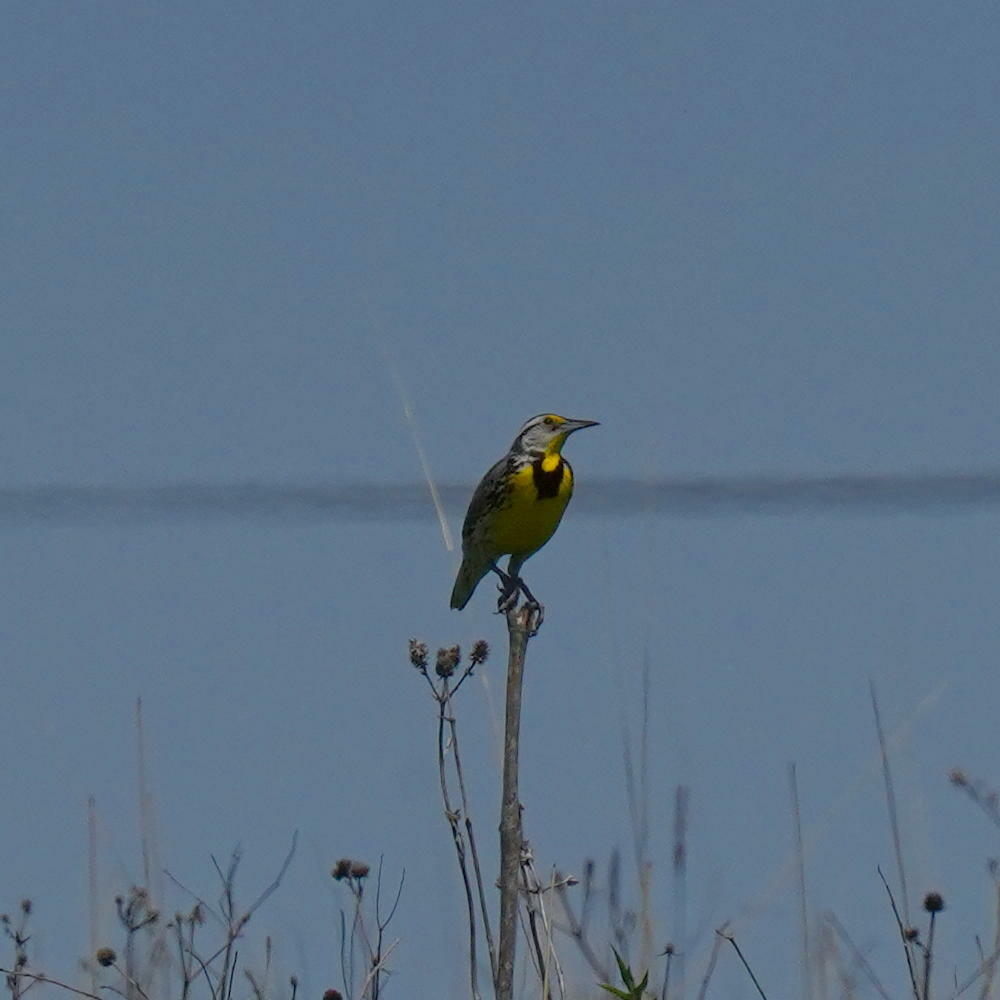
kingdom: Animalia
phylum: Chordata
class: Aves
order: Passeriformes
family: Icteridae
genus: Sturnella
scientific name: Sturnella magna
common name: Eastern meadowlark
